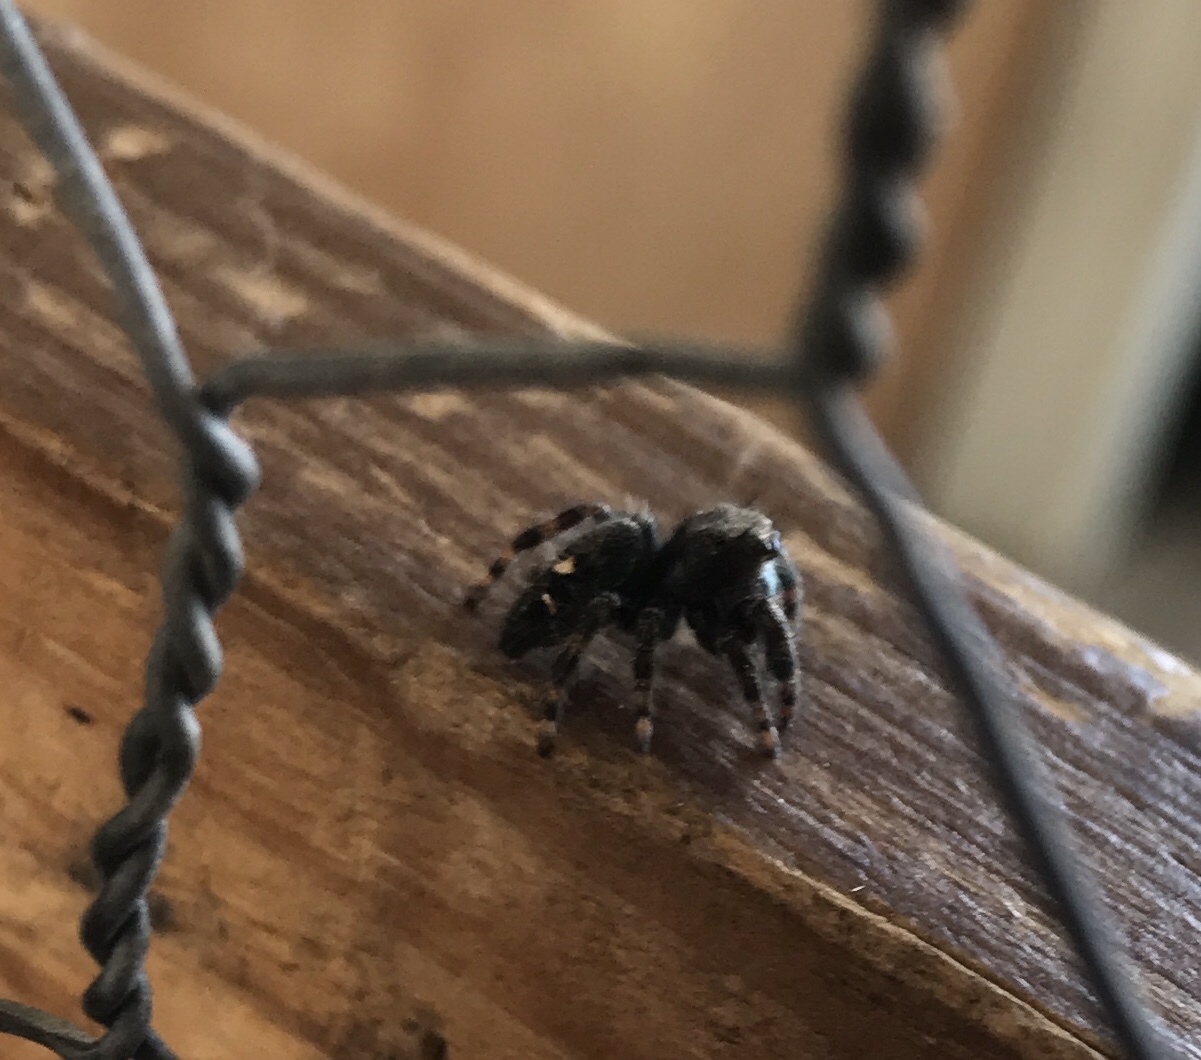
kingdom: Animalia
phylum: Arthropoda
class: Arachnida
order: Araneae
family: Salticidae
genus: Phidippus
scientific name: Phidippus audax
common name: Bold jumper
